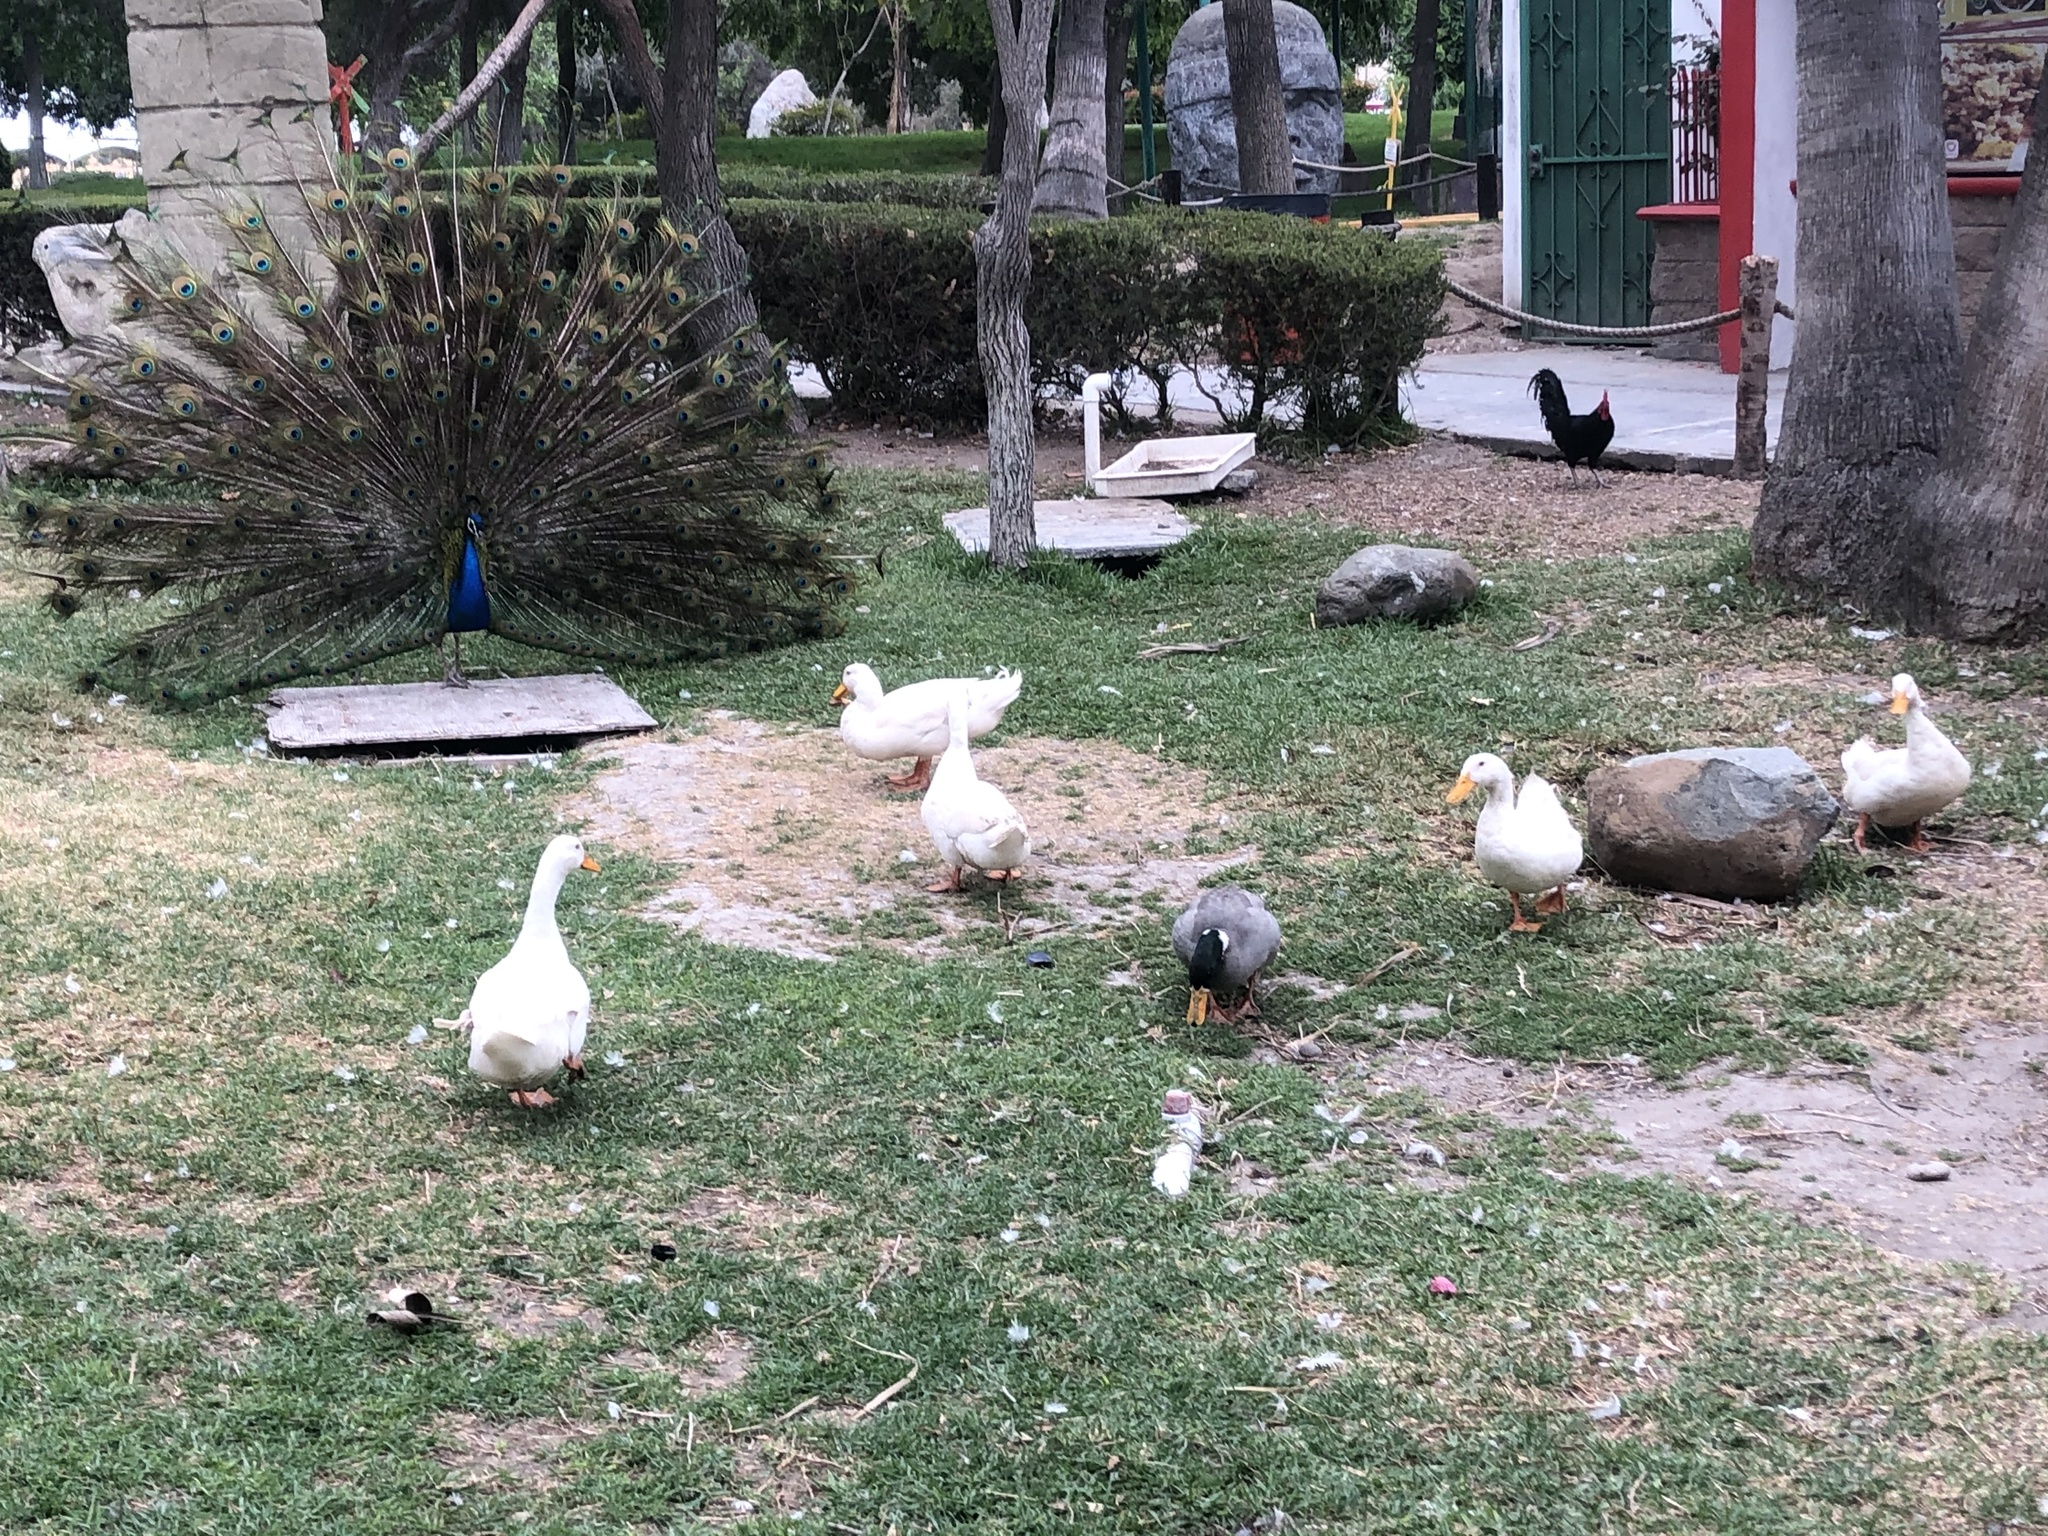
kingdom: Animalia
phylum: Chordata
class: Aves
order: Anseriformes
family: Anatidae
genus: Anas
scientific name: Anas platyrhynchos
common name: Mallard
